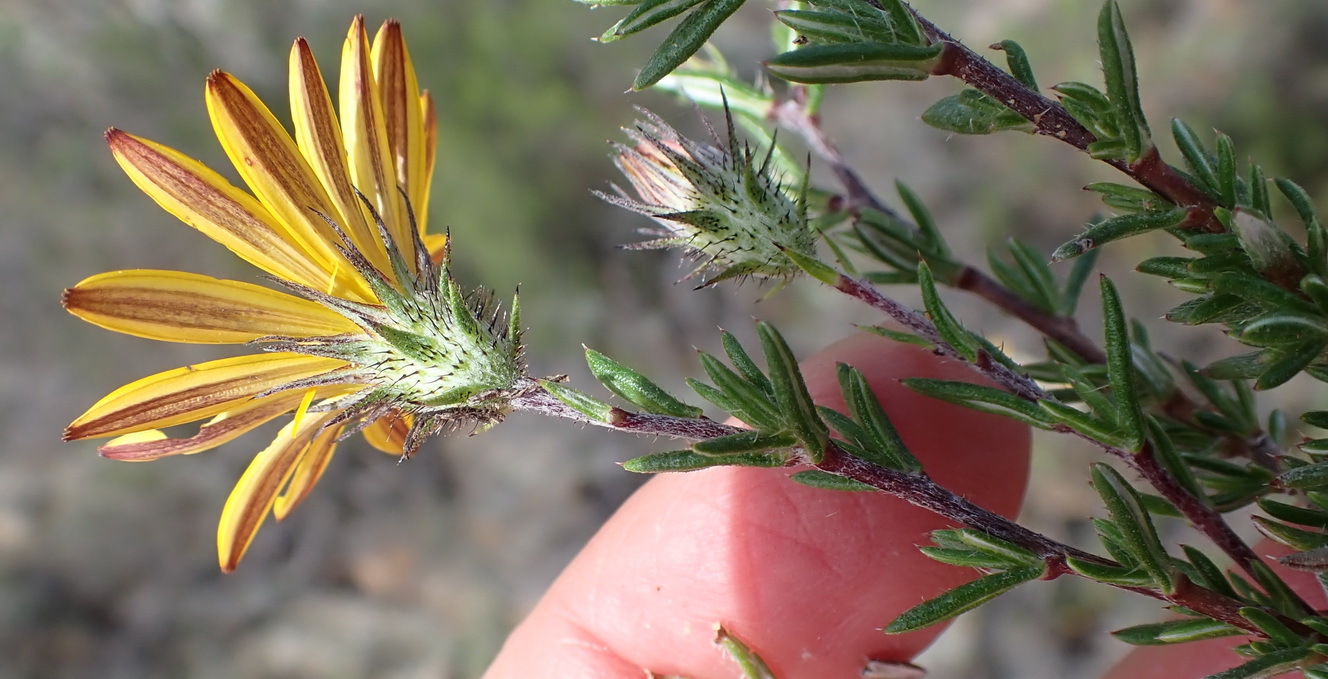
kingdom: Plantae
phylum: Tracheophyta
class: Magnoliopsida
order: Asterales
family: Asteraceae
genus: Gorteria
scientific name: Gorteria alienata
